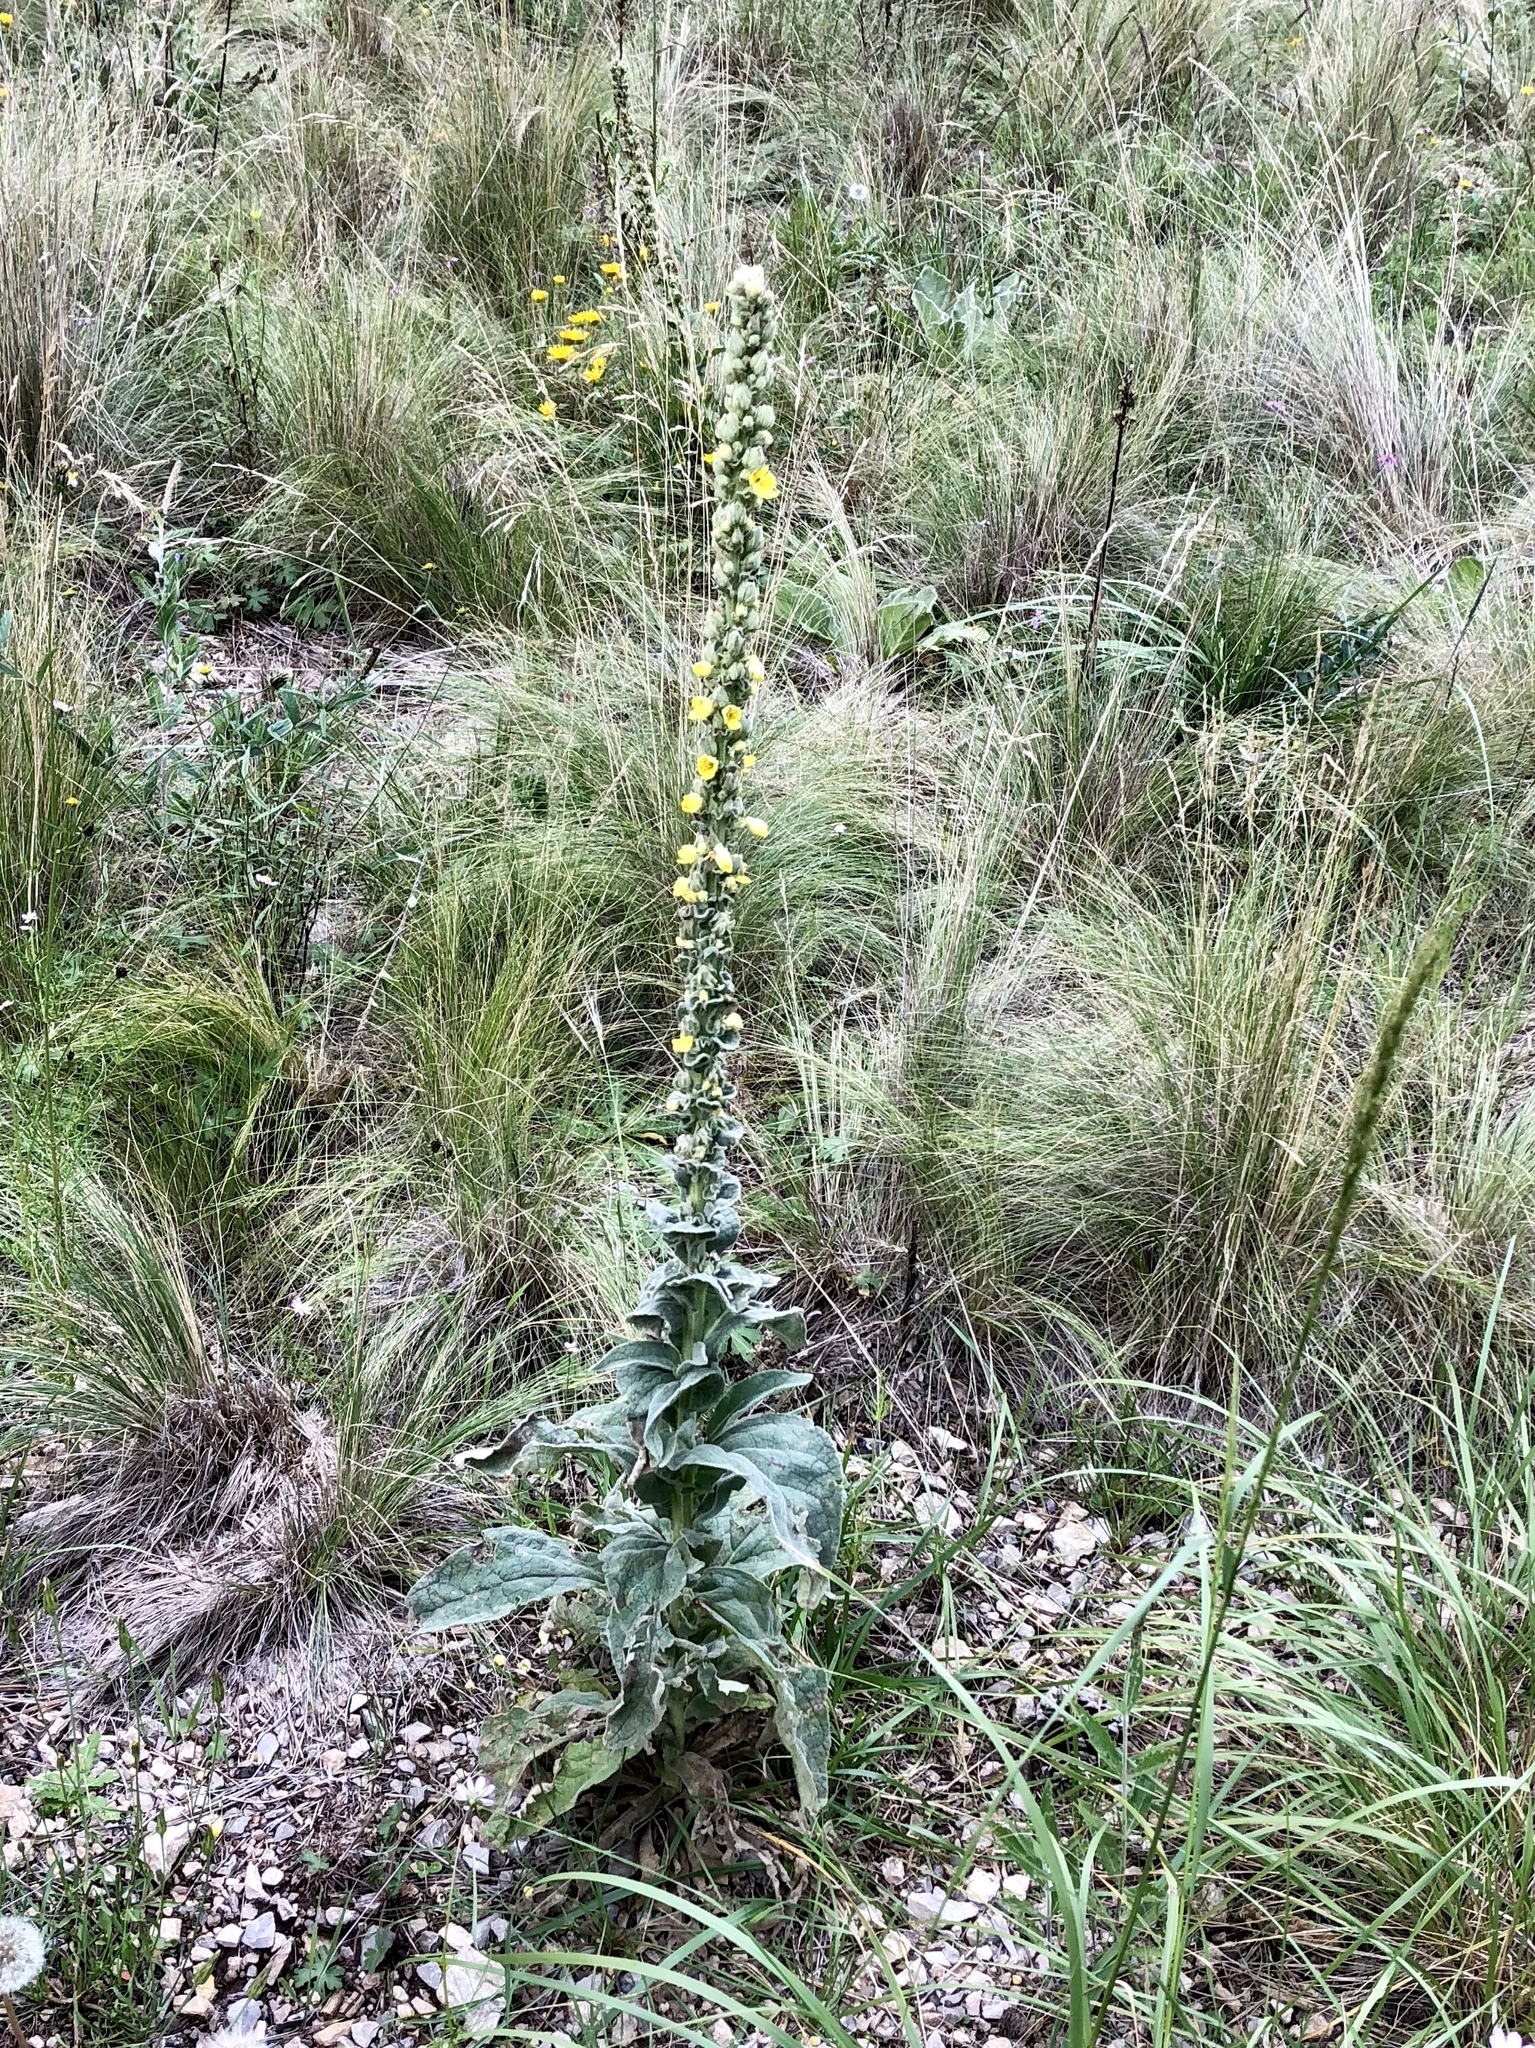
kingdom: Plantae
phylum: Tracheophyta
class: Magnoliopsida
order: Lamiales
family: Scrophulariaceae
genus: Verbascum
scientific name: Verbascum thapsus
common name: Common mullein
